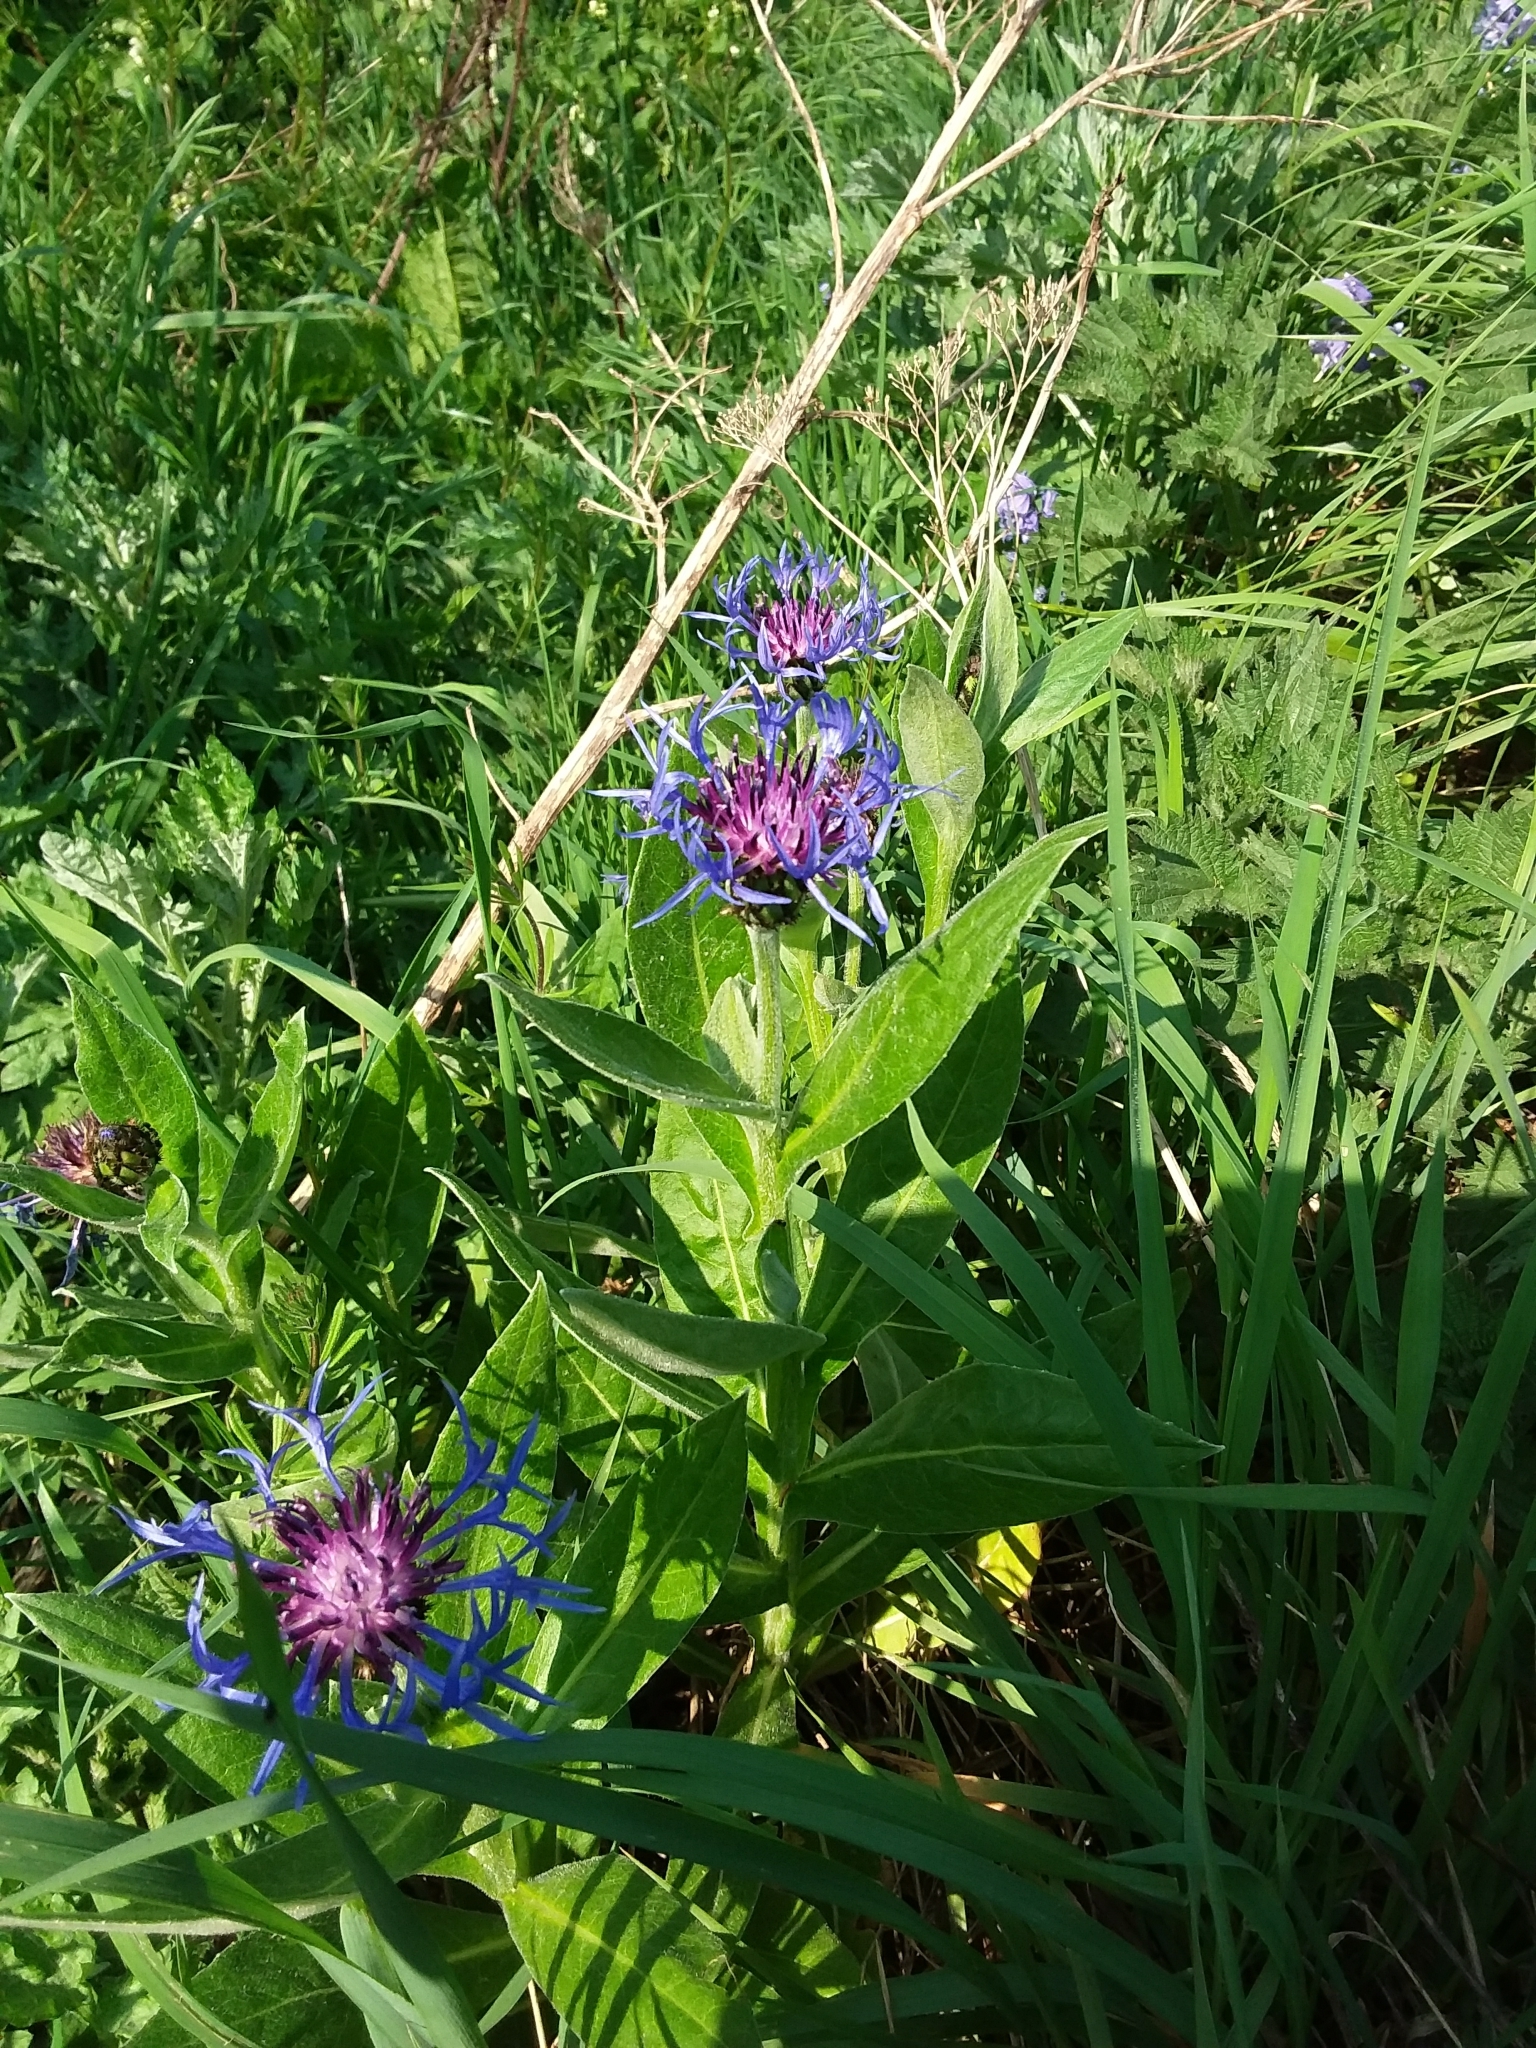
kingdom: Plantae
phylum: Tracheophyta
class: Magnoliopsida
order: Asterales
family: Asteraceae
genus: Centaurea
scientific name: Centaurea montana
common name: Perennial cornflower
